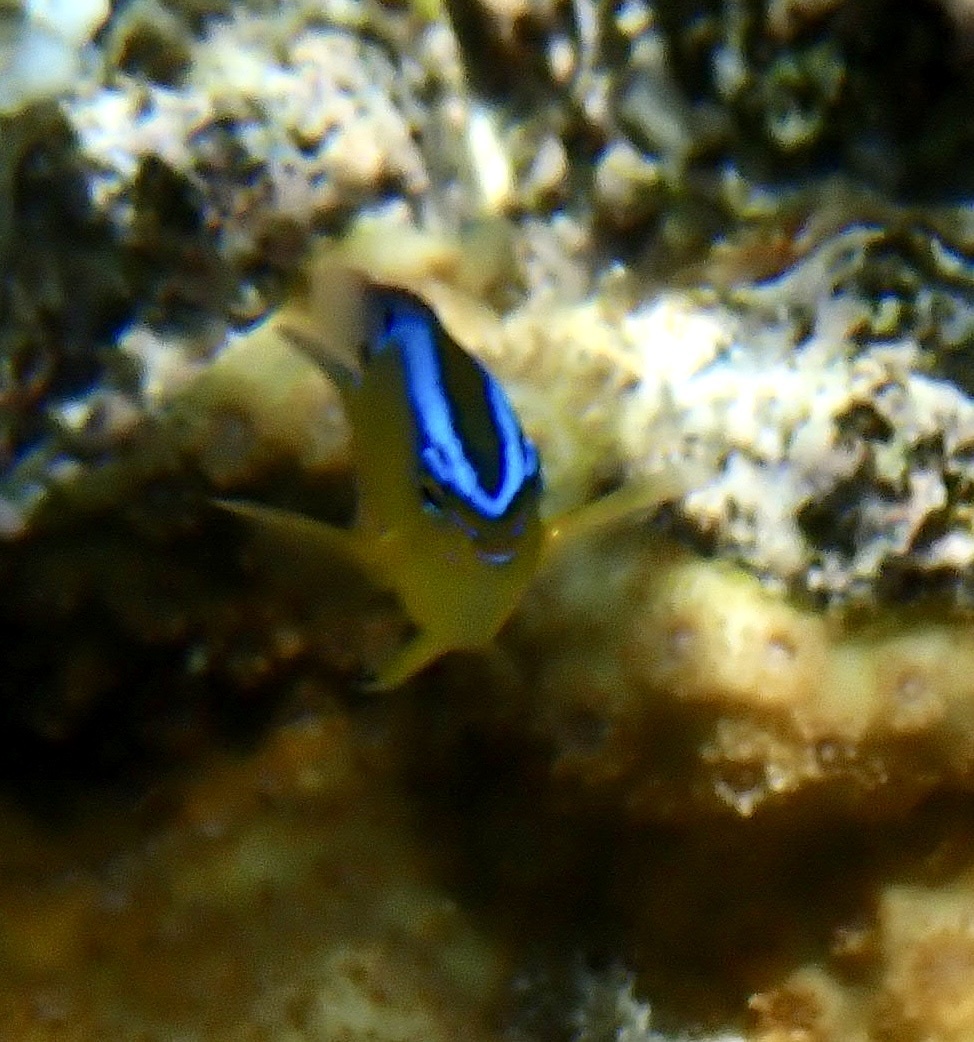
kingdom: Animalia
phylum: Chordata
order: Perciformes
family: Pomacentridae
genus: Chrysiptera
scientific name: Chrysiptera unimaculata
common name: Onespot demoiselle
